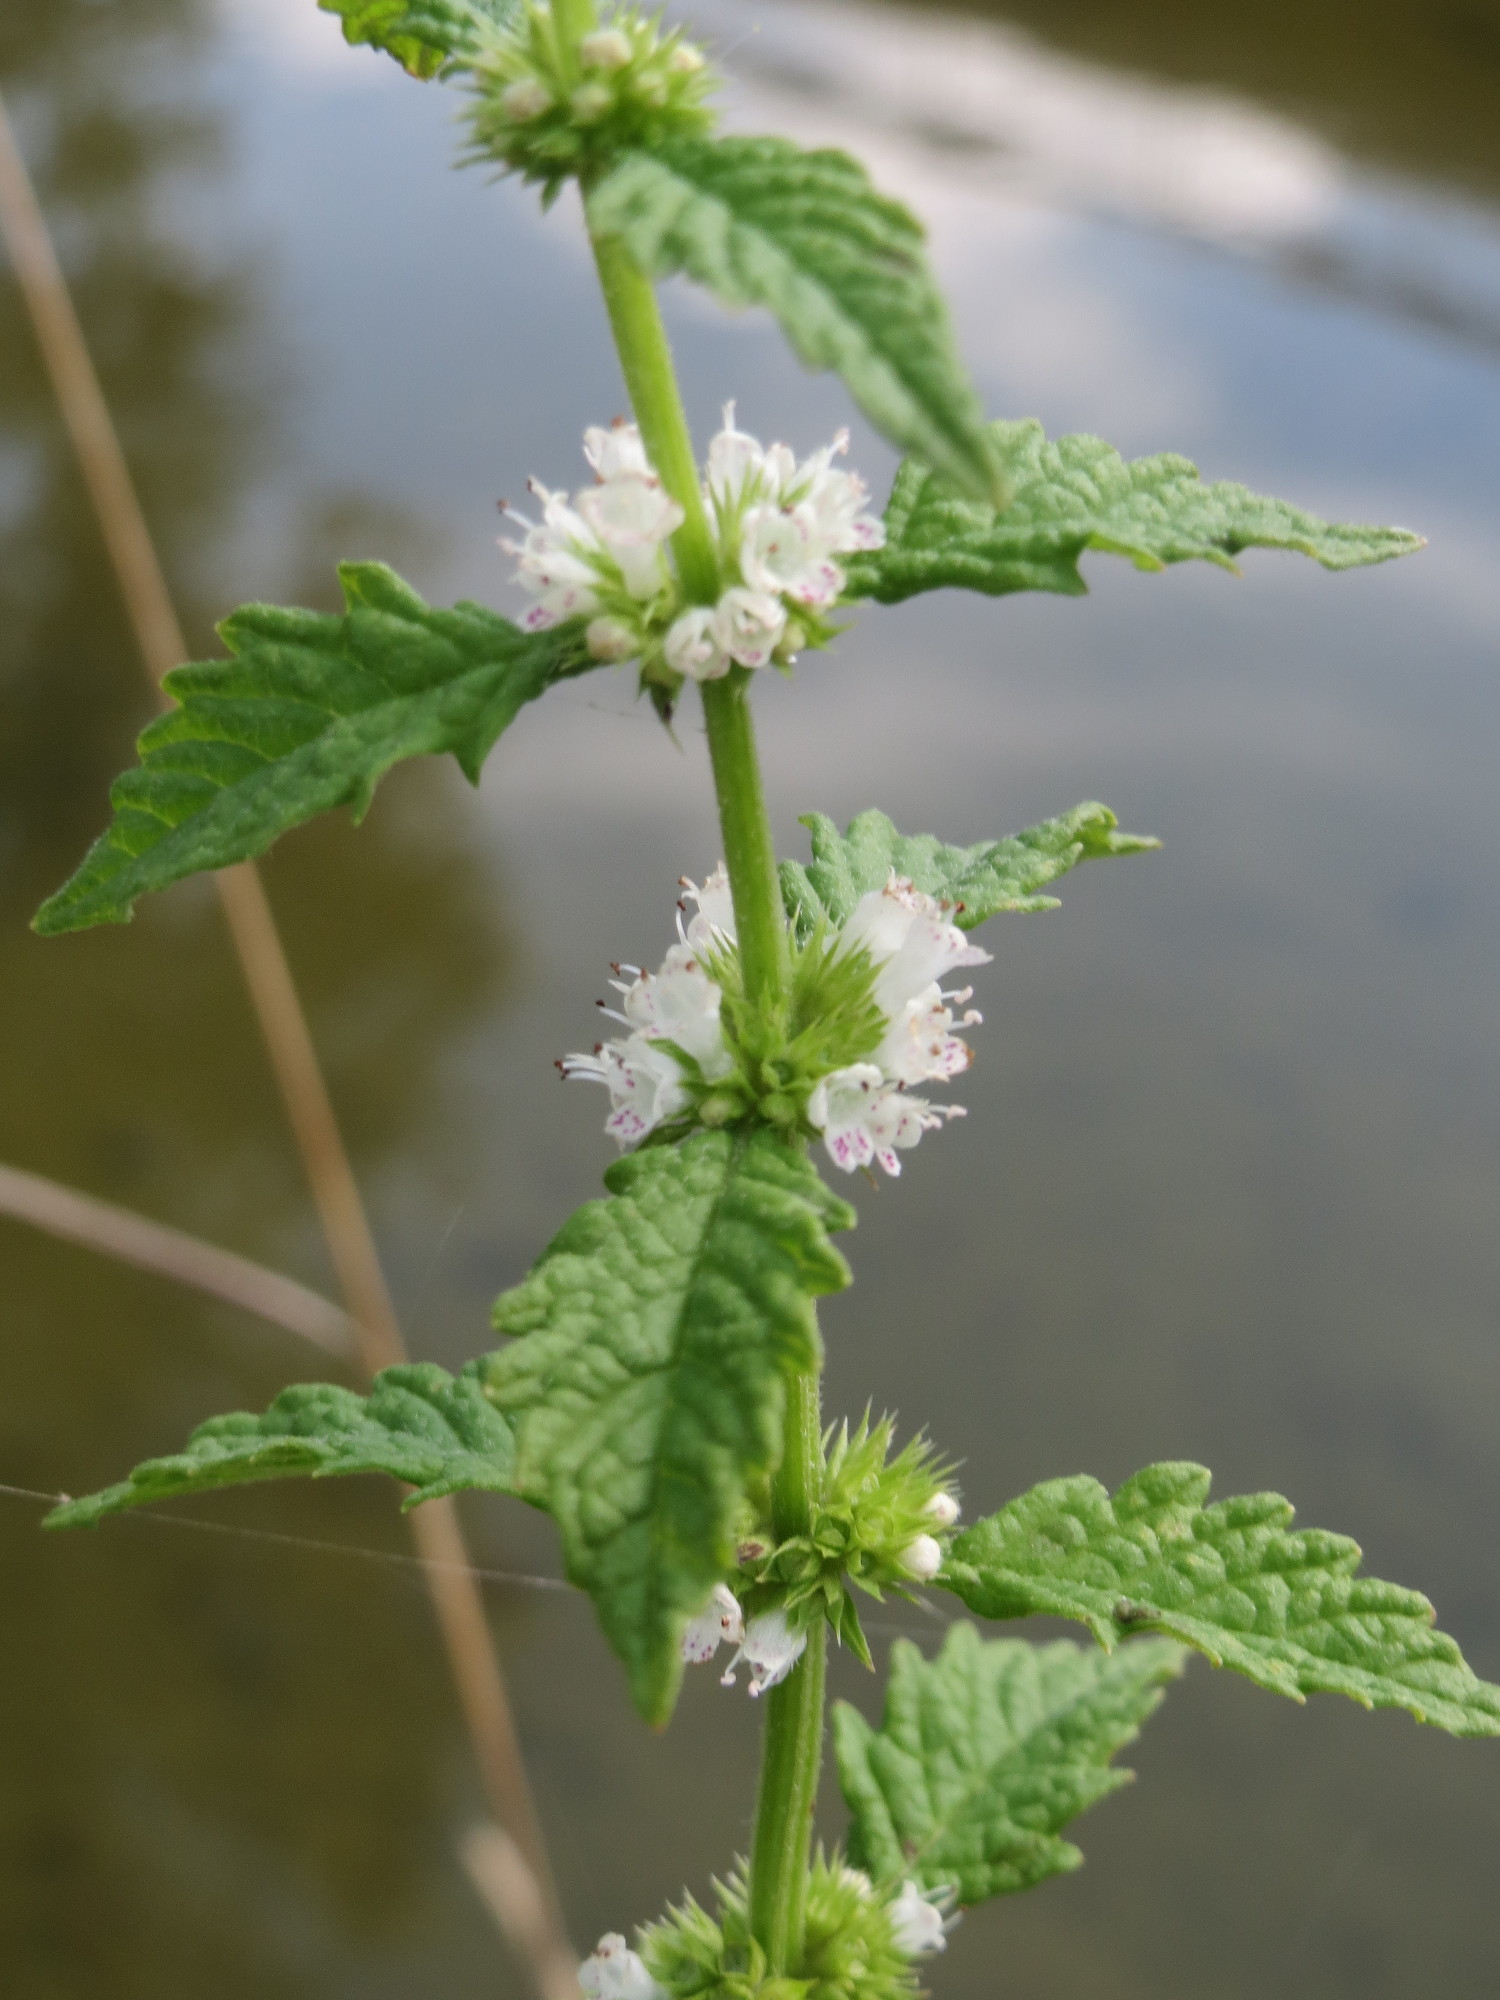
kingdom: Plantae
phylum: Tracheophyta
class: Magnoliopsida
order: Lamiales
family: Lamiaceae
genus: Lycopus
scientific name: Lycopus europaeus
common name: European bugleweed
